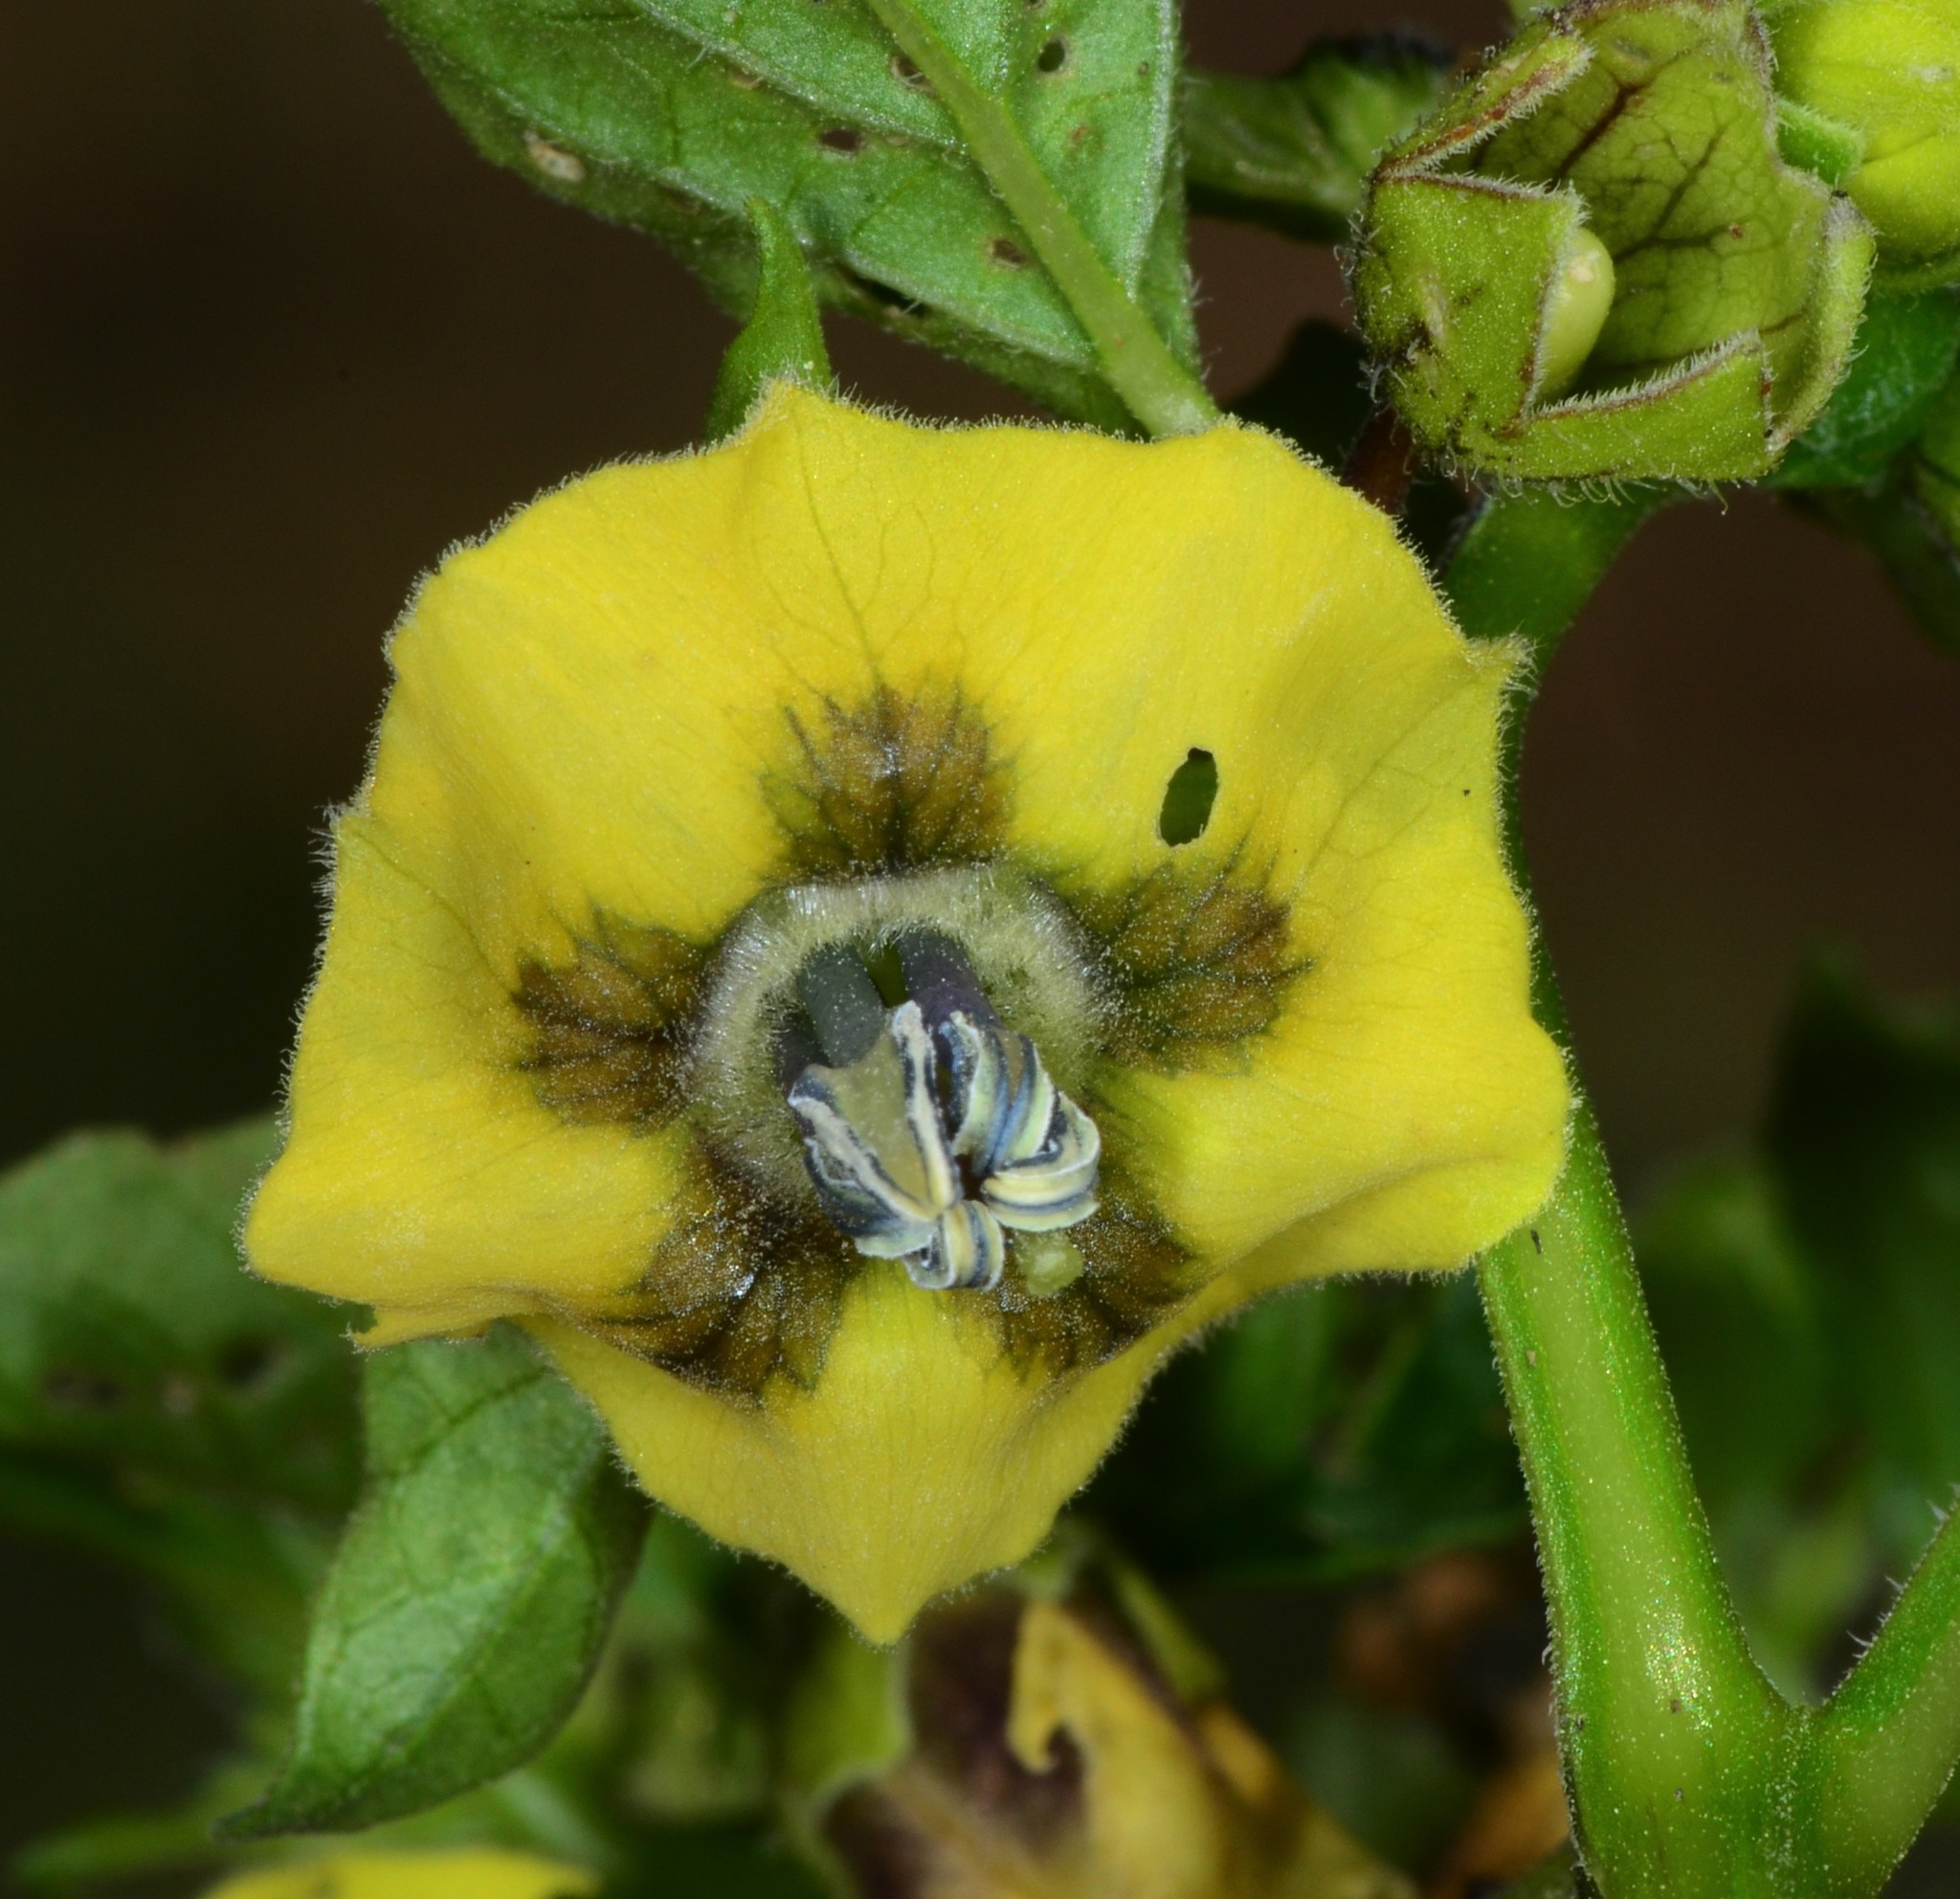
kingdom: Plantae
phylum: Tracheophyta
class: Magnoliopsida
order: Solanales
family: Solanaceae
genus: Physalis
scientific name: Physalis philadelphica
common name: Husk-tomato
